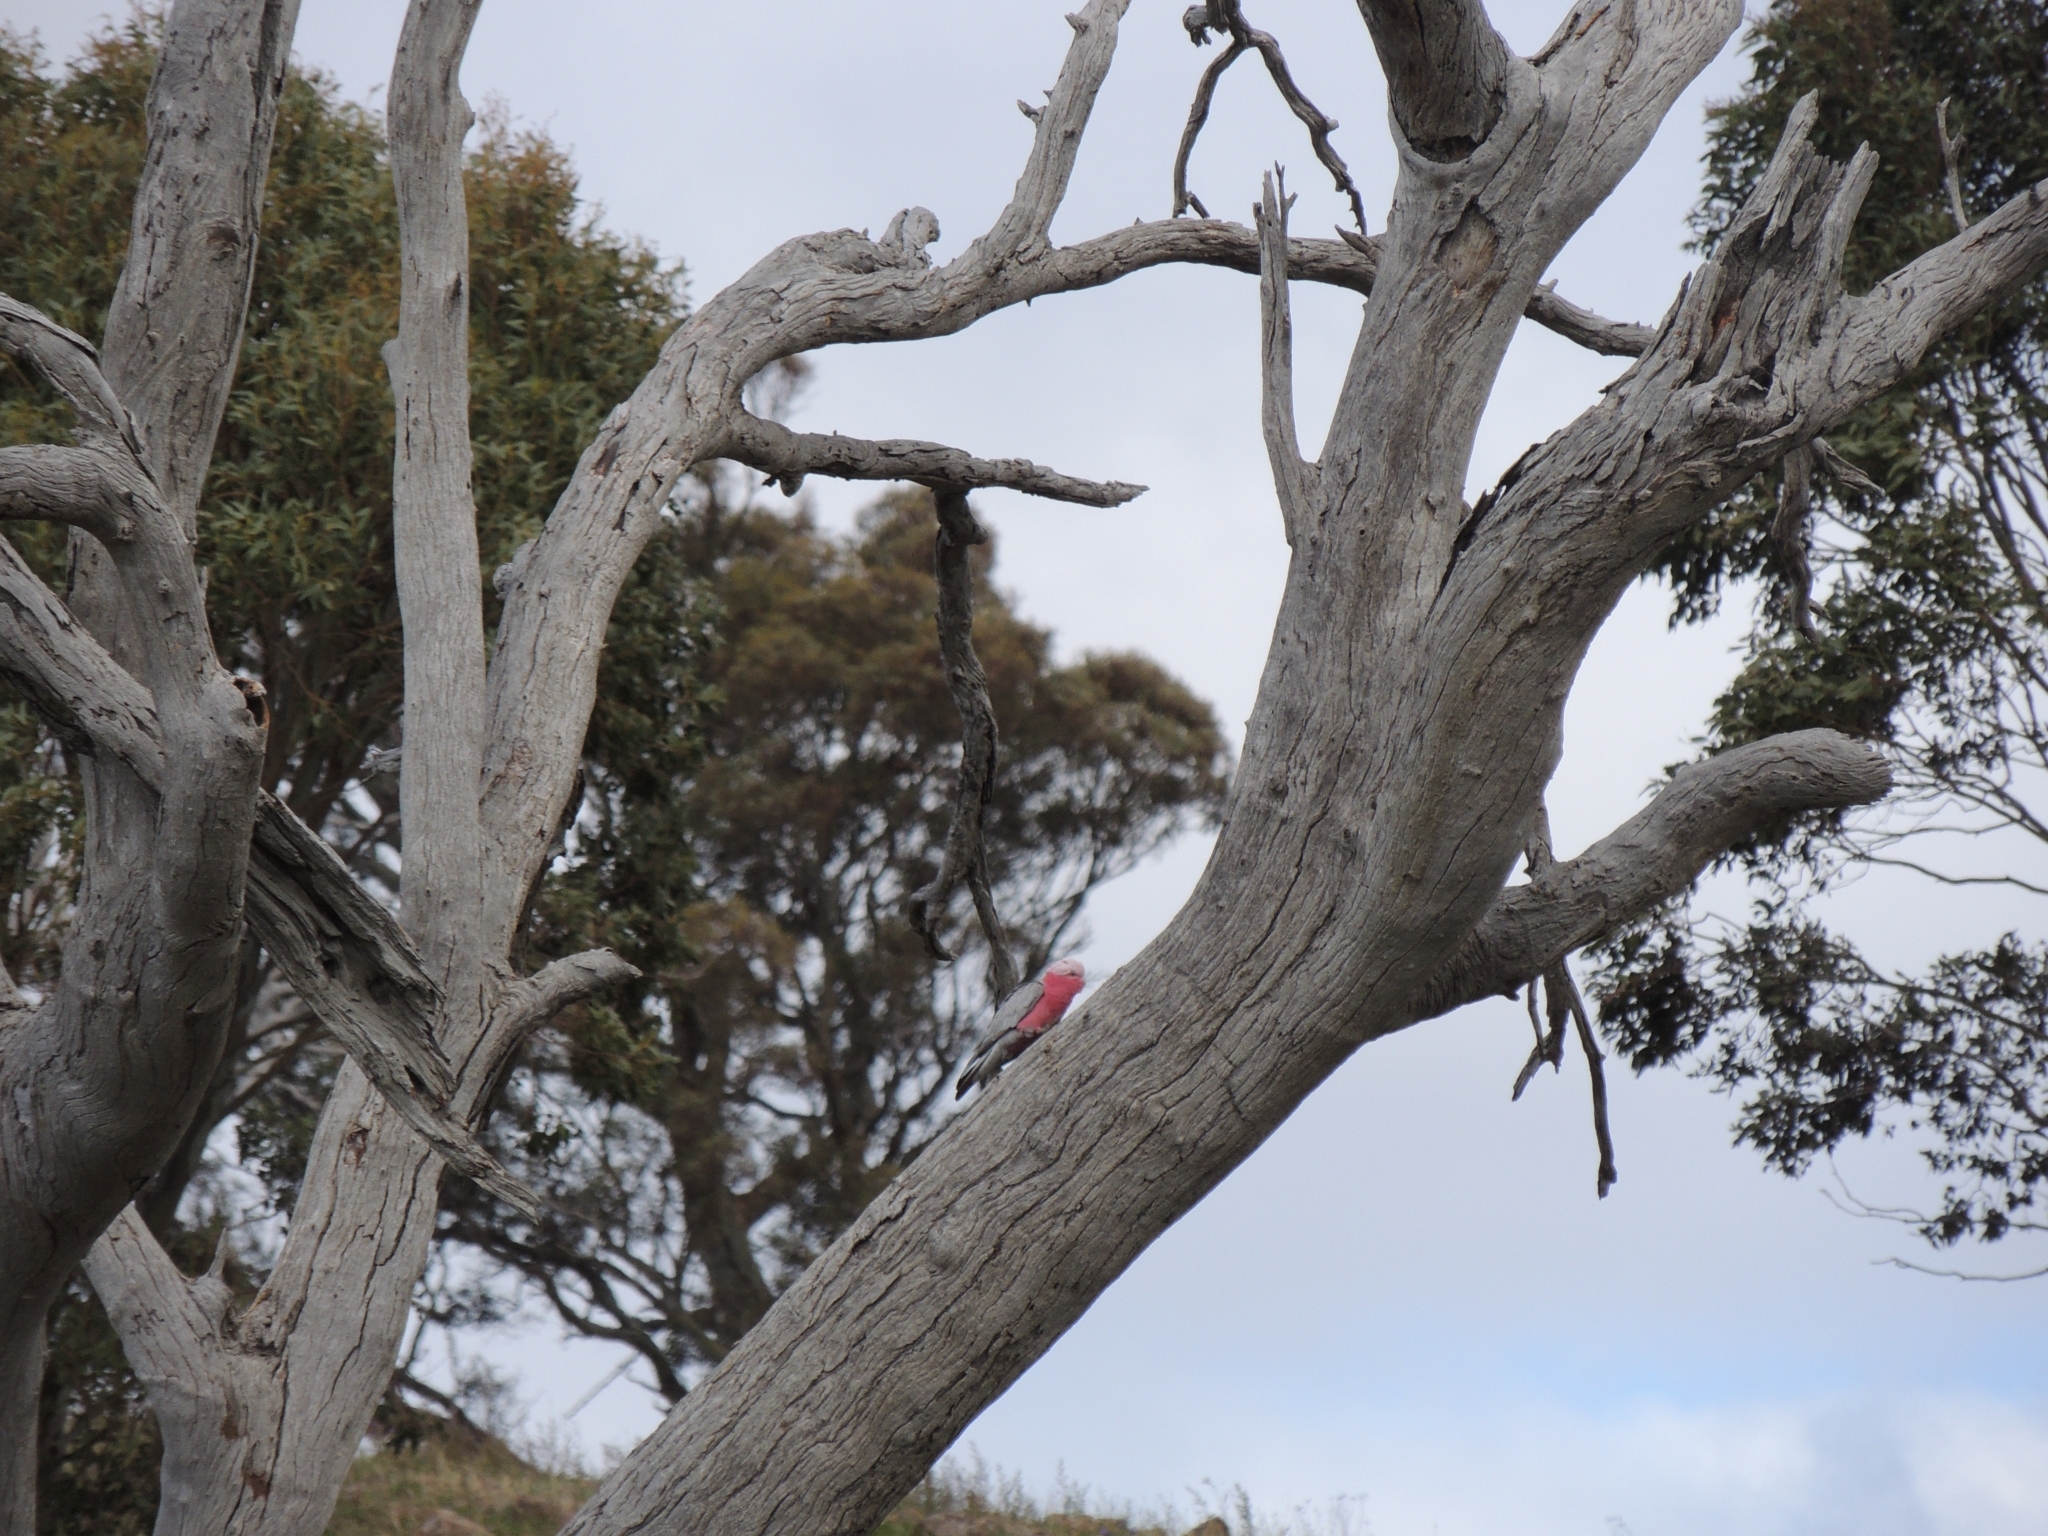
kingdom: Animalia
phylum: Chordata
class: Aves
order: Psittaciformes
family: Psittacidae
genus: Eolophus
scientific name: Eolophus roseicapilla
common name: Galah
